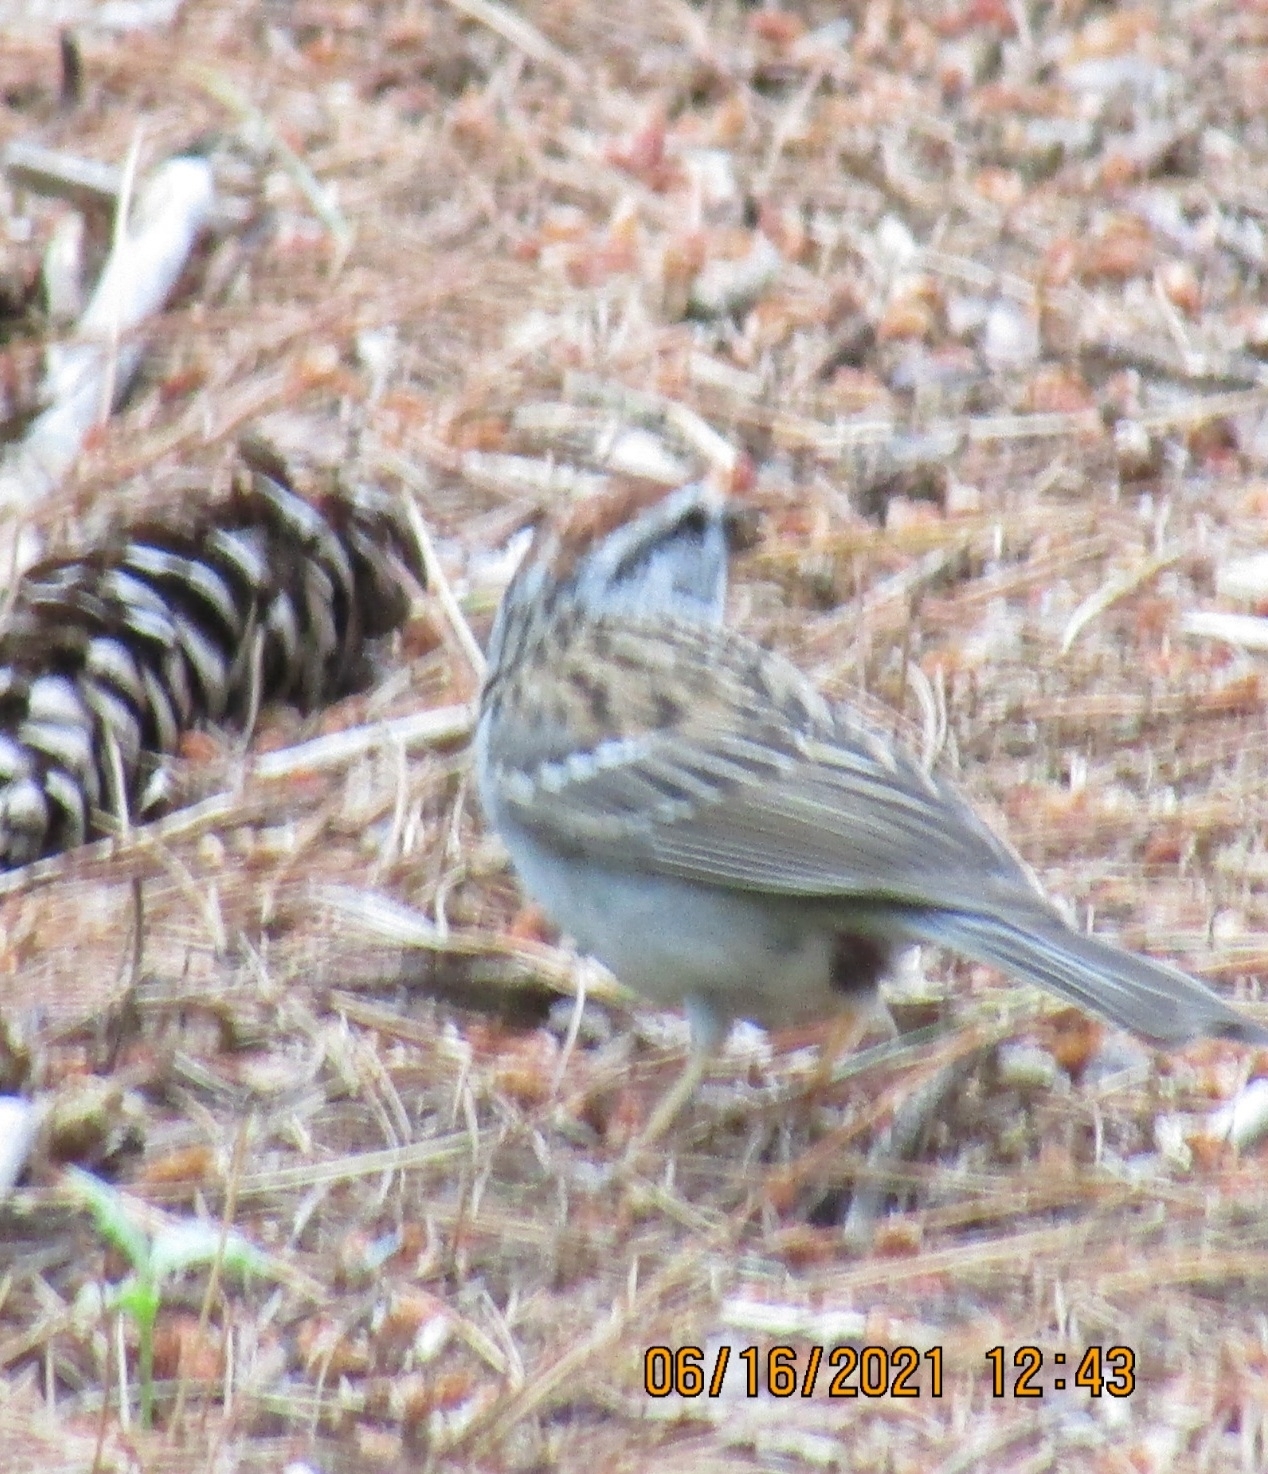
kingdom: Animalia
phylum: Chordata
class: Aves
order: Passeriformes
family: Passerellidae
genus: Spizella
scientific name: Spizella passerina
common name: Chipping sparrow
